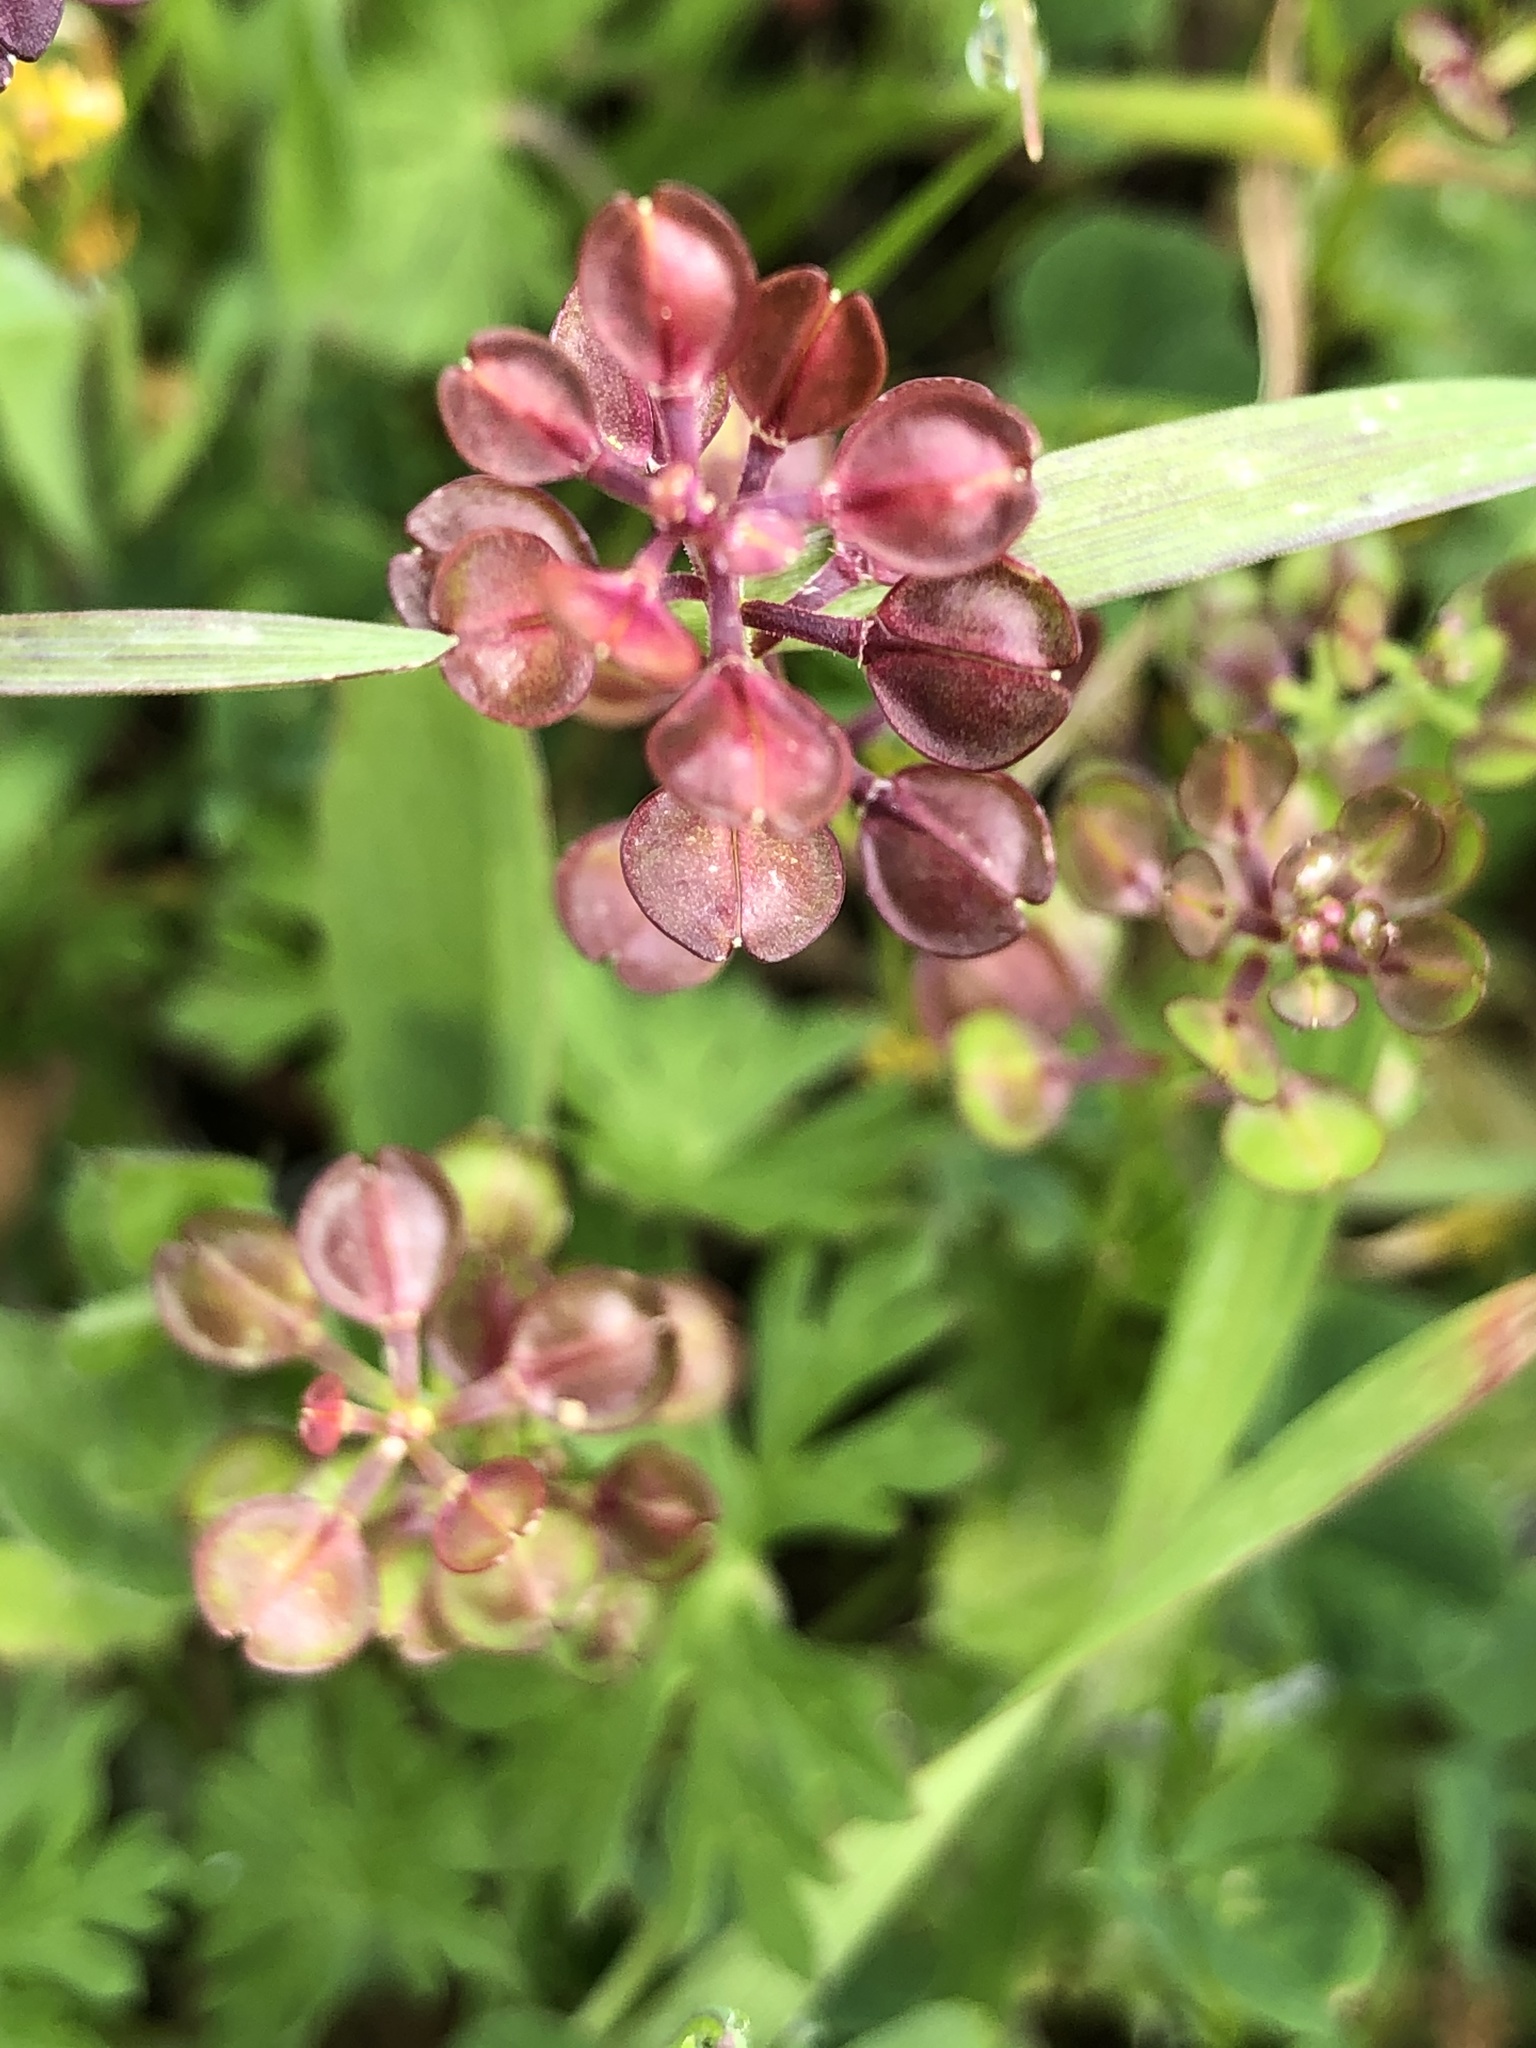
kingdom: Plantae
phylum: Tracheophyta
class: Magnoliopsida
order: Brassicales
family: Brassicaceae
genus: Lepidium
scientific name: Lepidium nitidum
